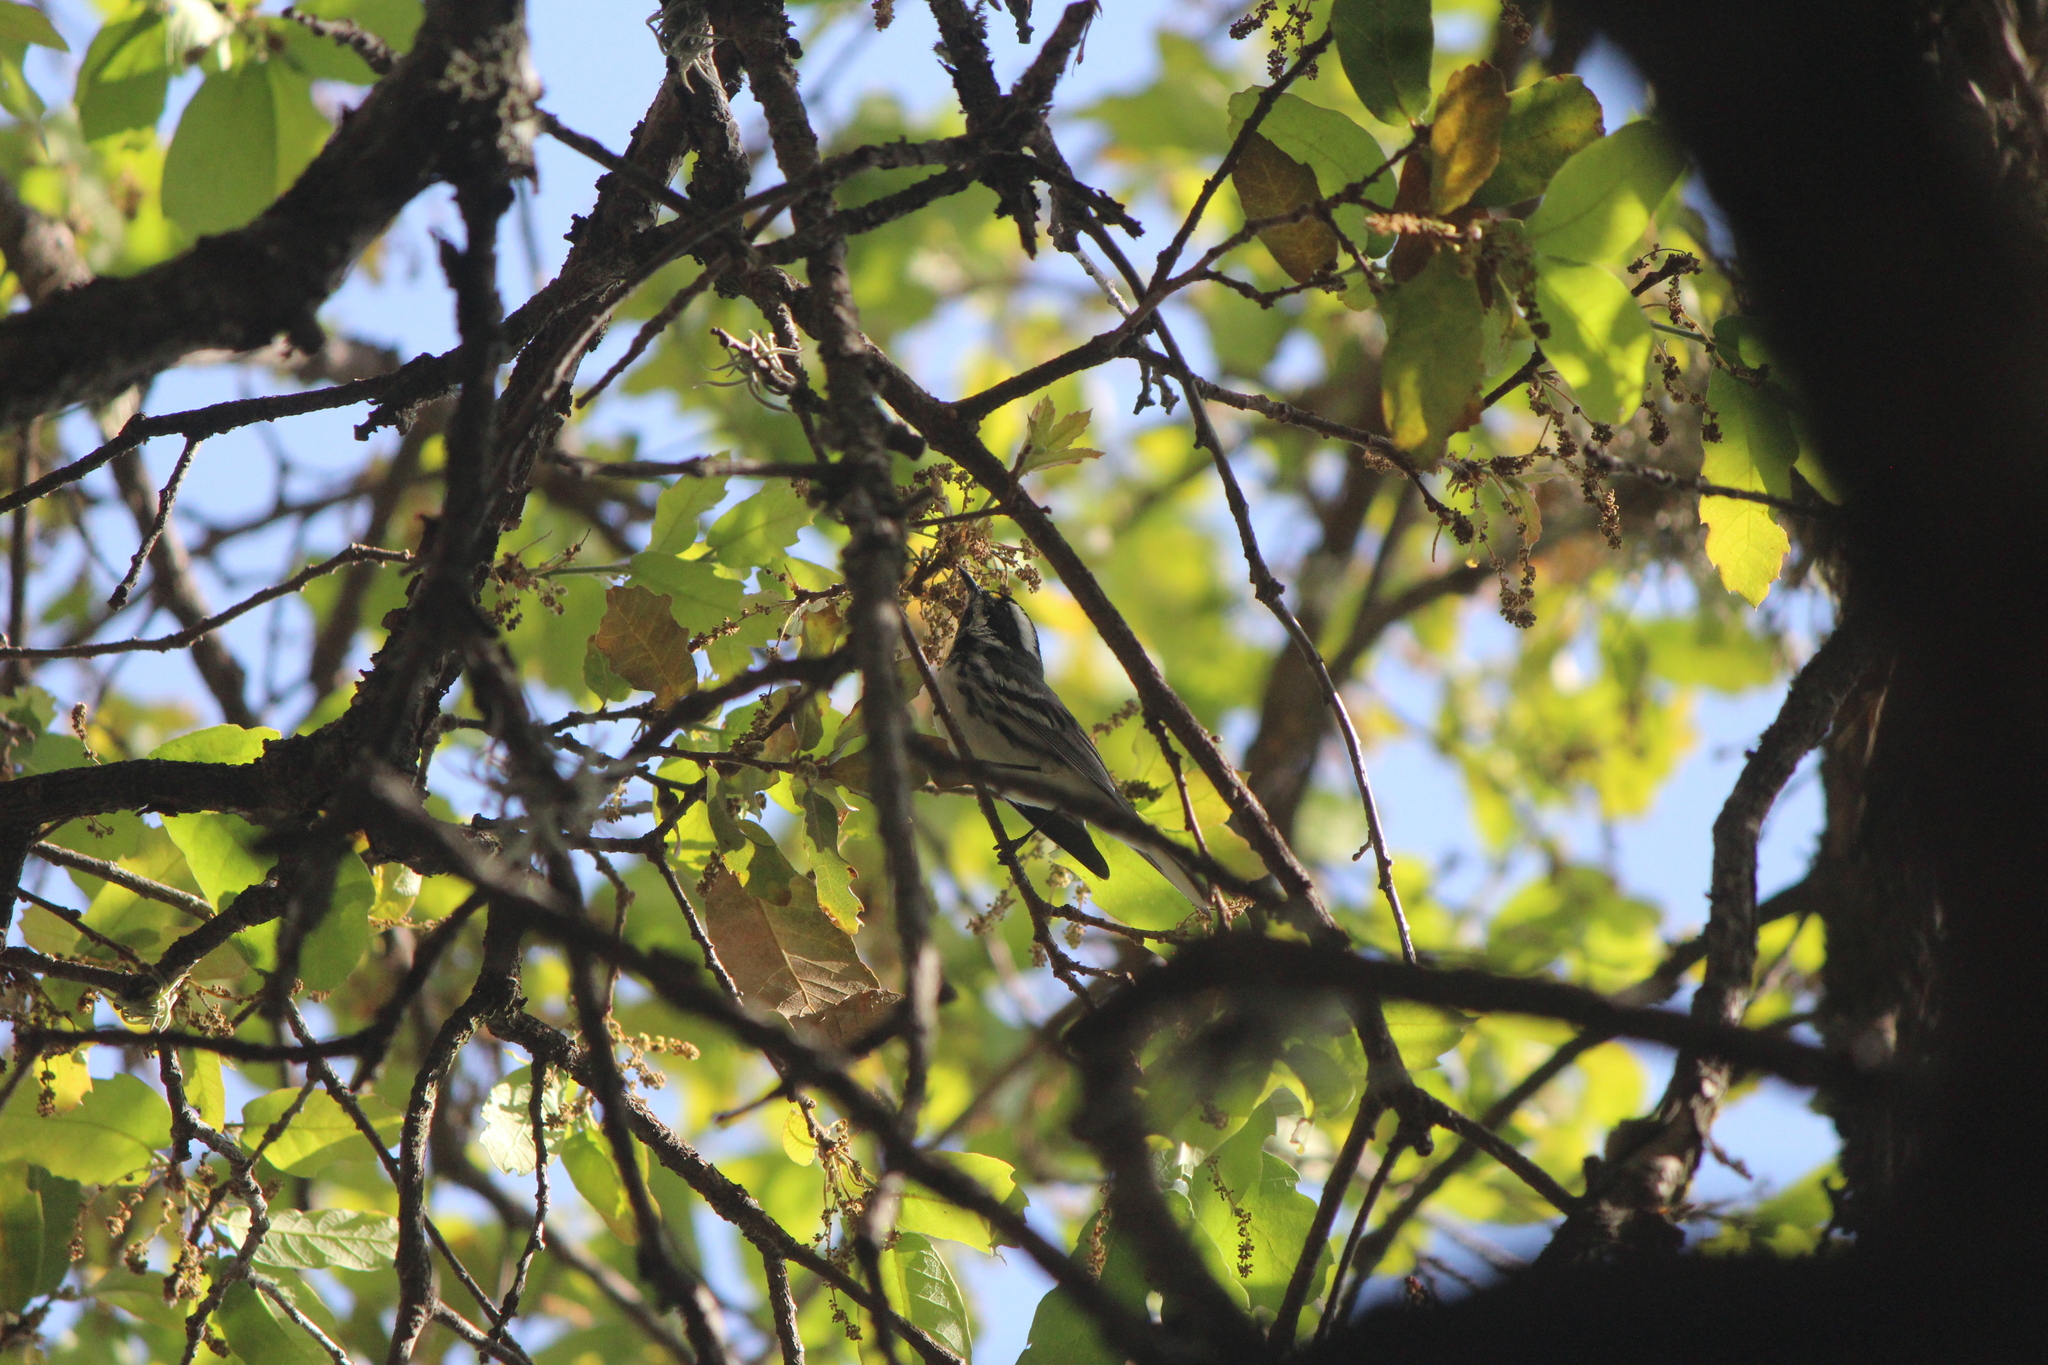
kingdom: Animalia
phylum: Chordata
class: Aves
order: Passeriformes
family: Parulidae
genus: Setophaga
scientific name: Setophaga nigrescens
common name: Black-throated gray warbler
